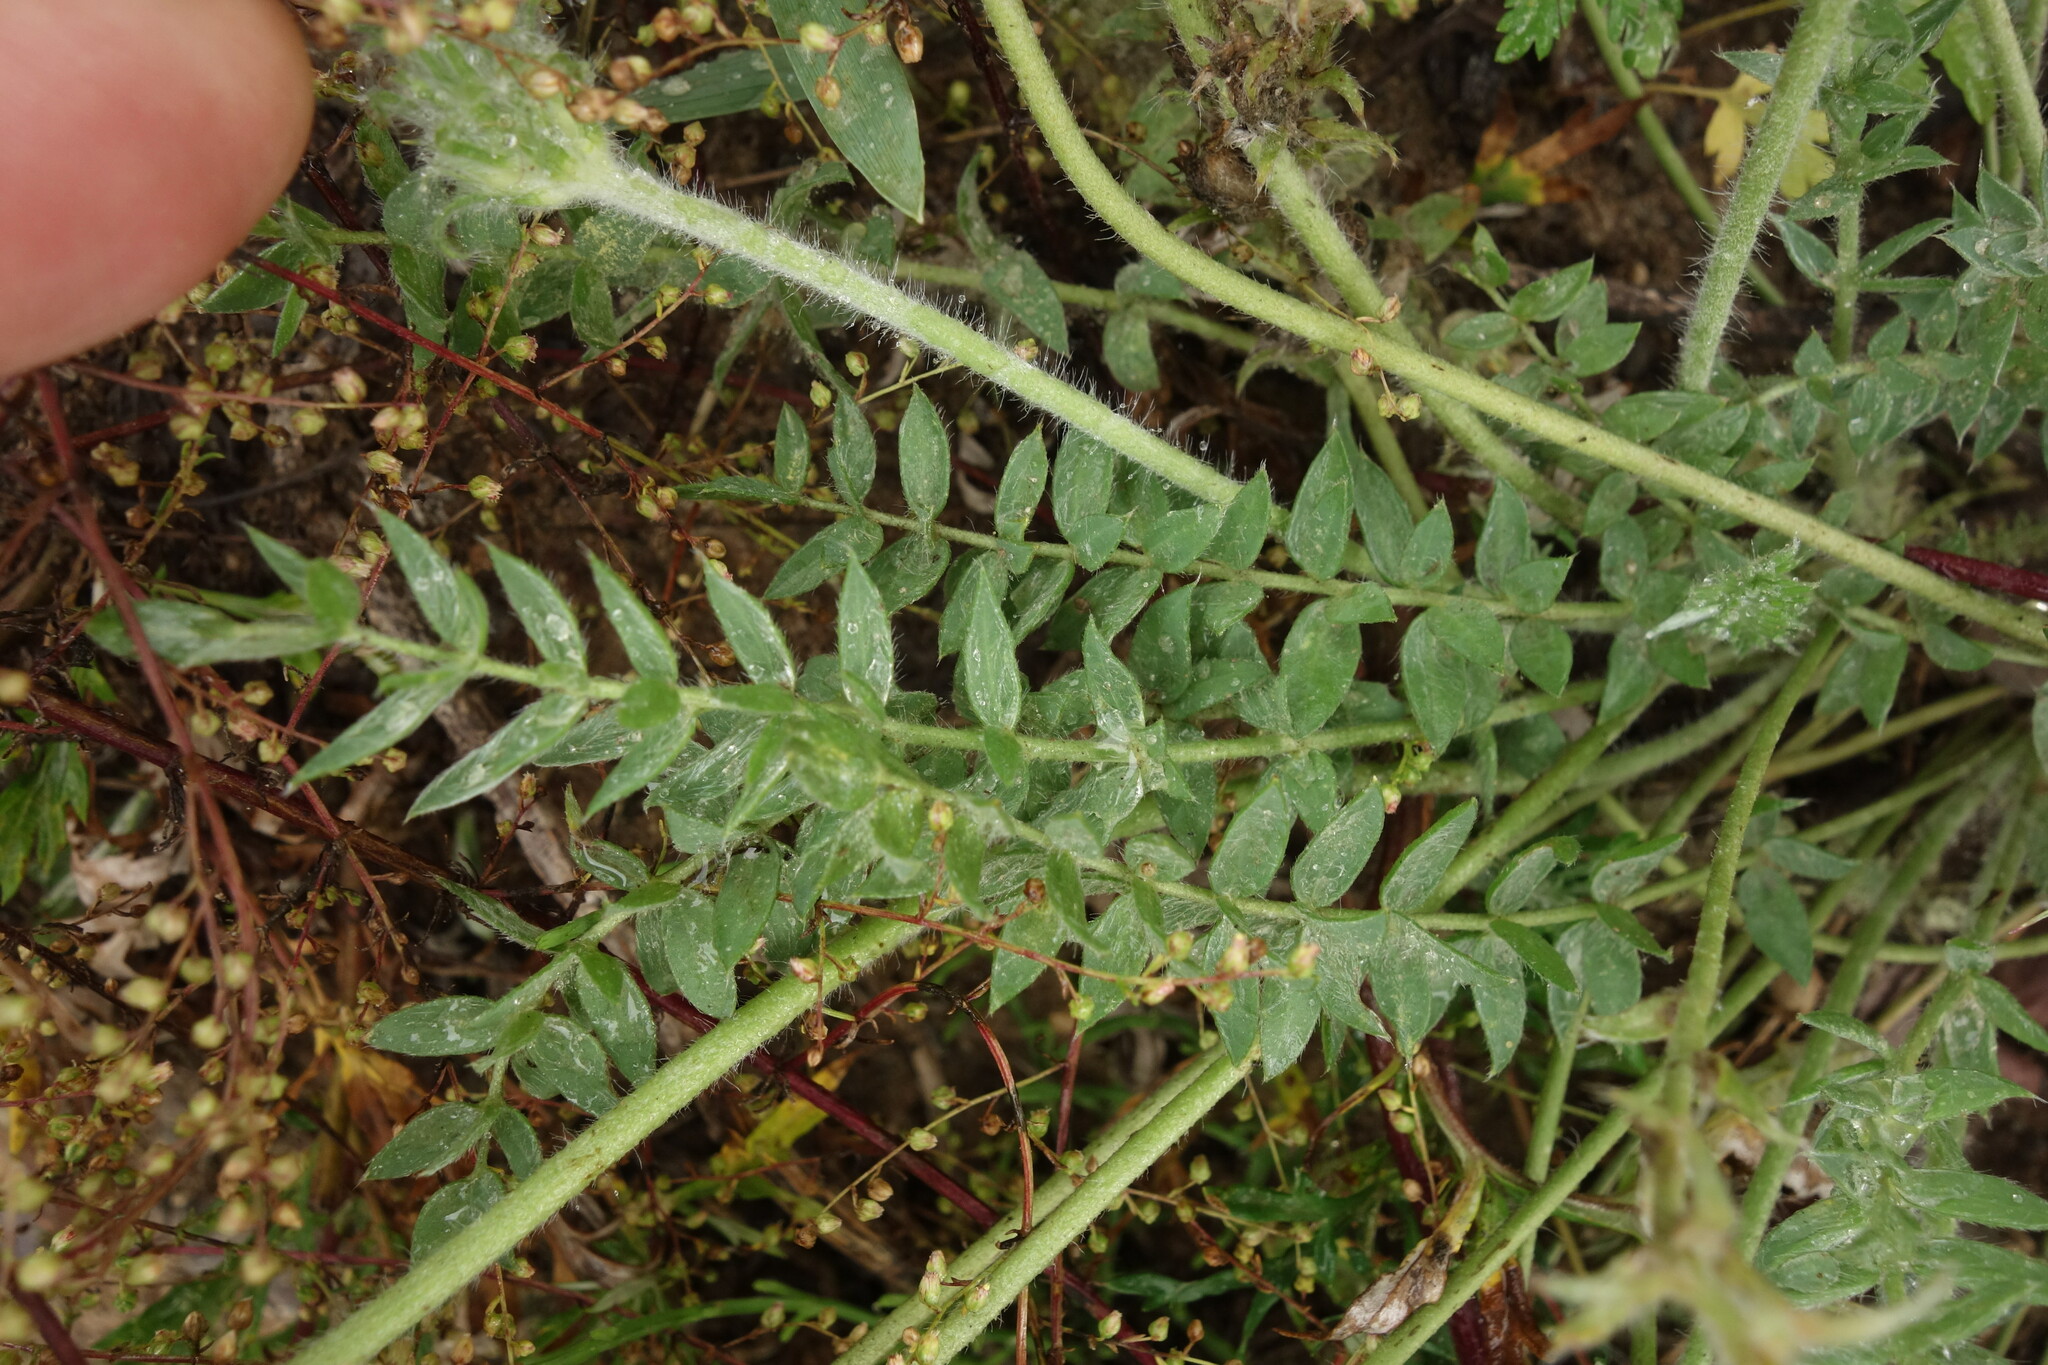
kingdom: Plantae
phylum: Tracheophyta
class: Magnoliopsida
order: Fabales
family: Fabaceae
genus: Oxytropis
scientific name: Oxytropis turczaninovii
